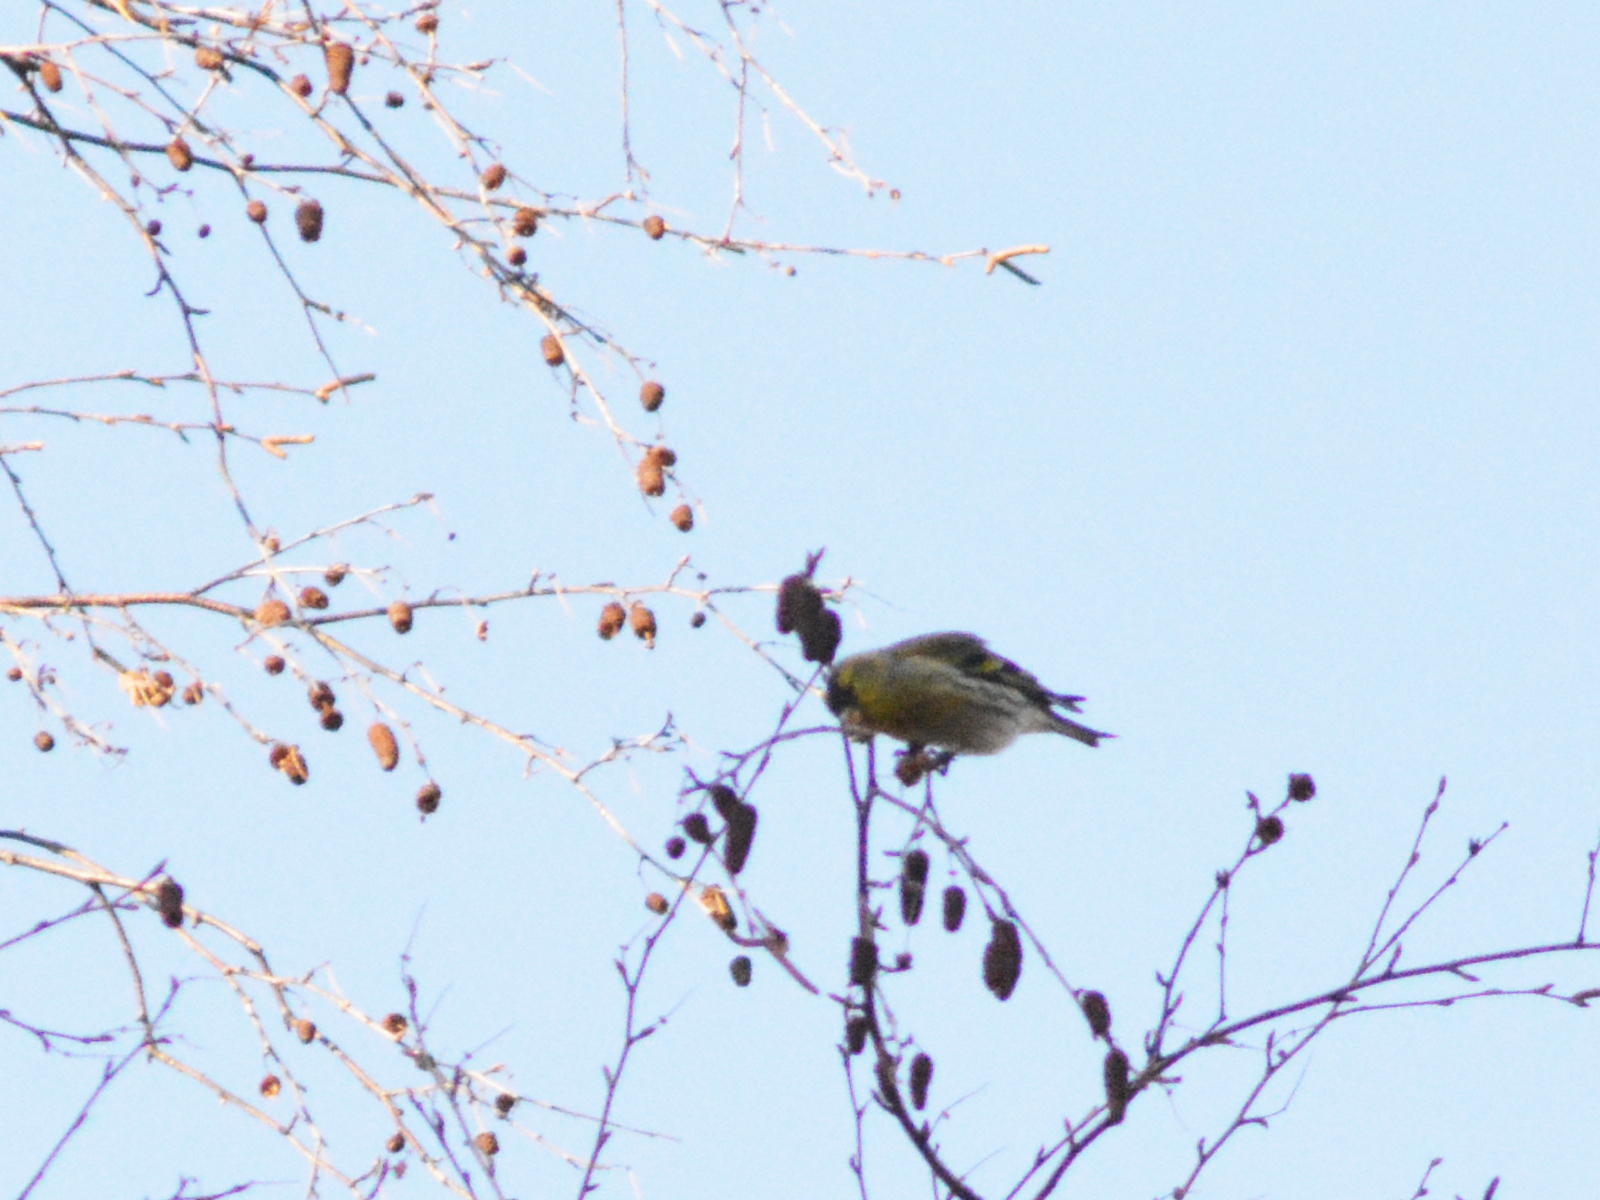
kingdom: Animalia
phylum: Chordata
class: Aves
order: Passeriformes
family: Fringillidae
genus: Spinus
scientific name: Spinus spinus
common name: Eurasian siskin
